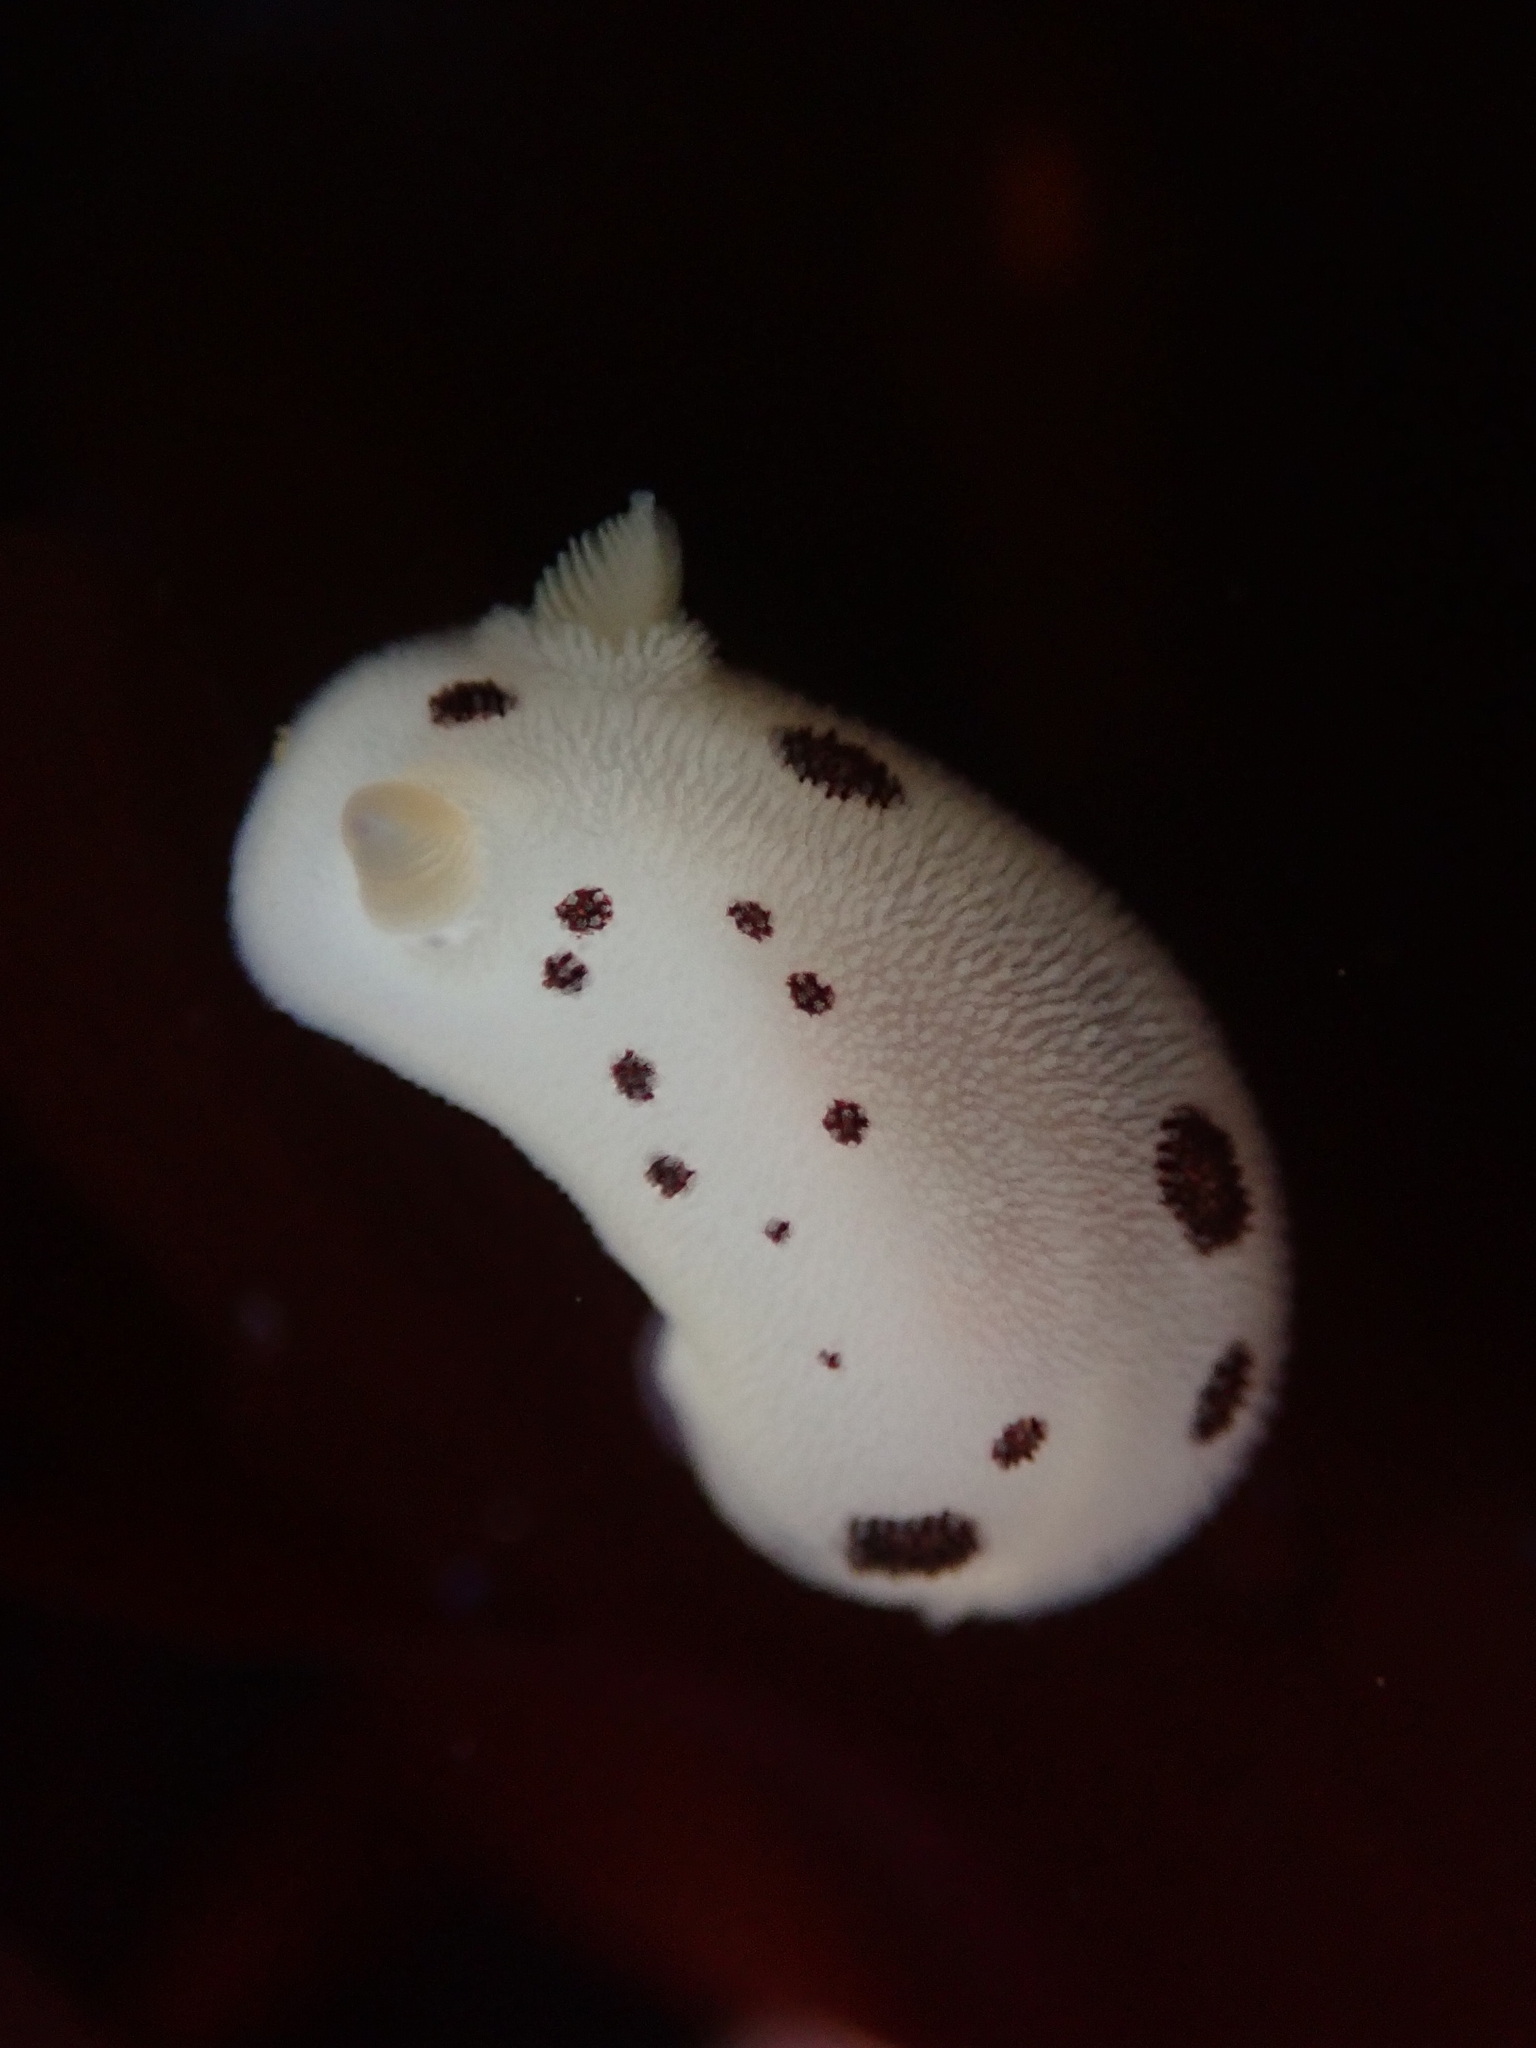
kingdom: Animalia
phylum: Mollusca
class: Gastropoda
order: Nudibranchia
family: Discodorididae
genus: Diaulula
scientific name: Diaulula sandiegensis
